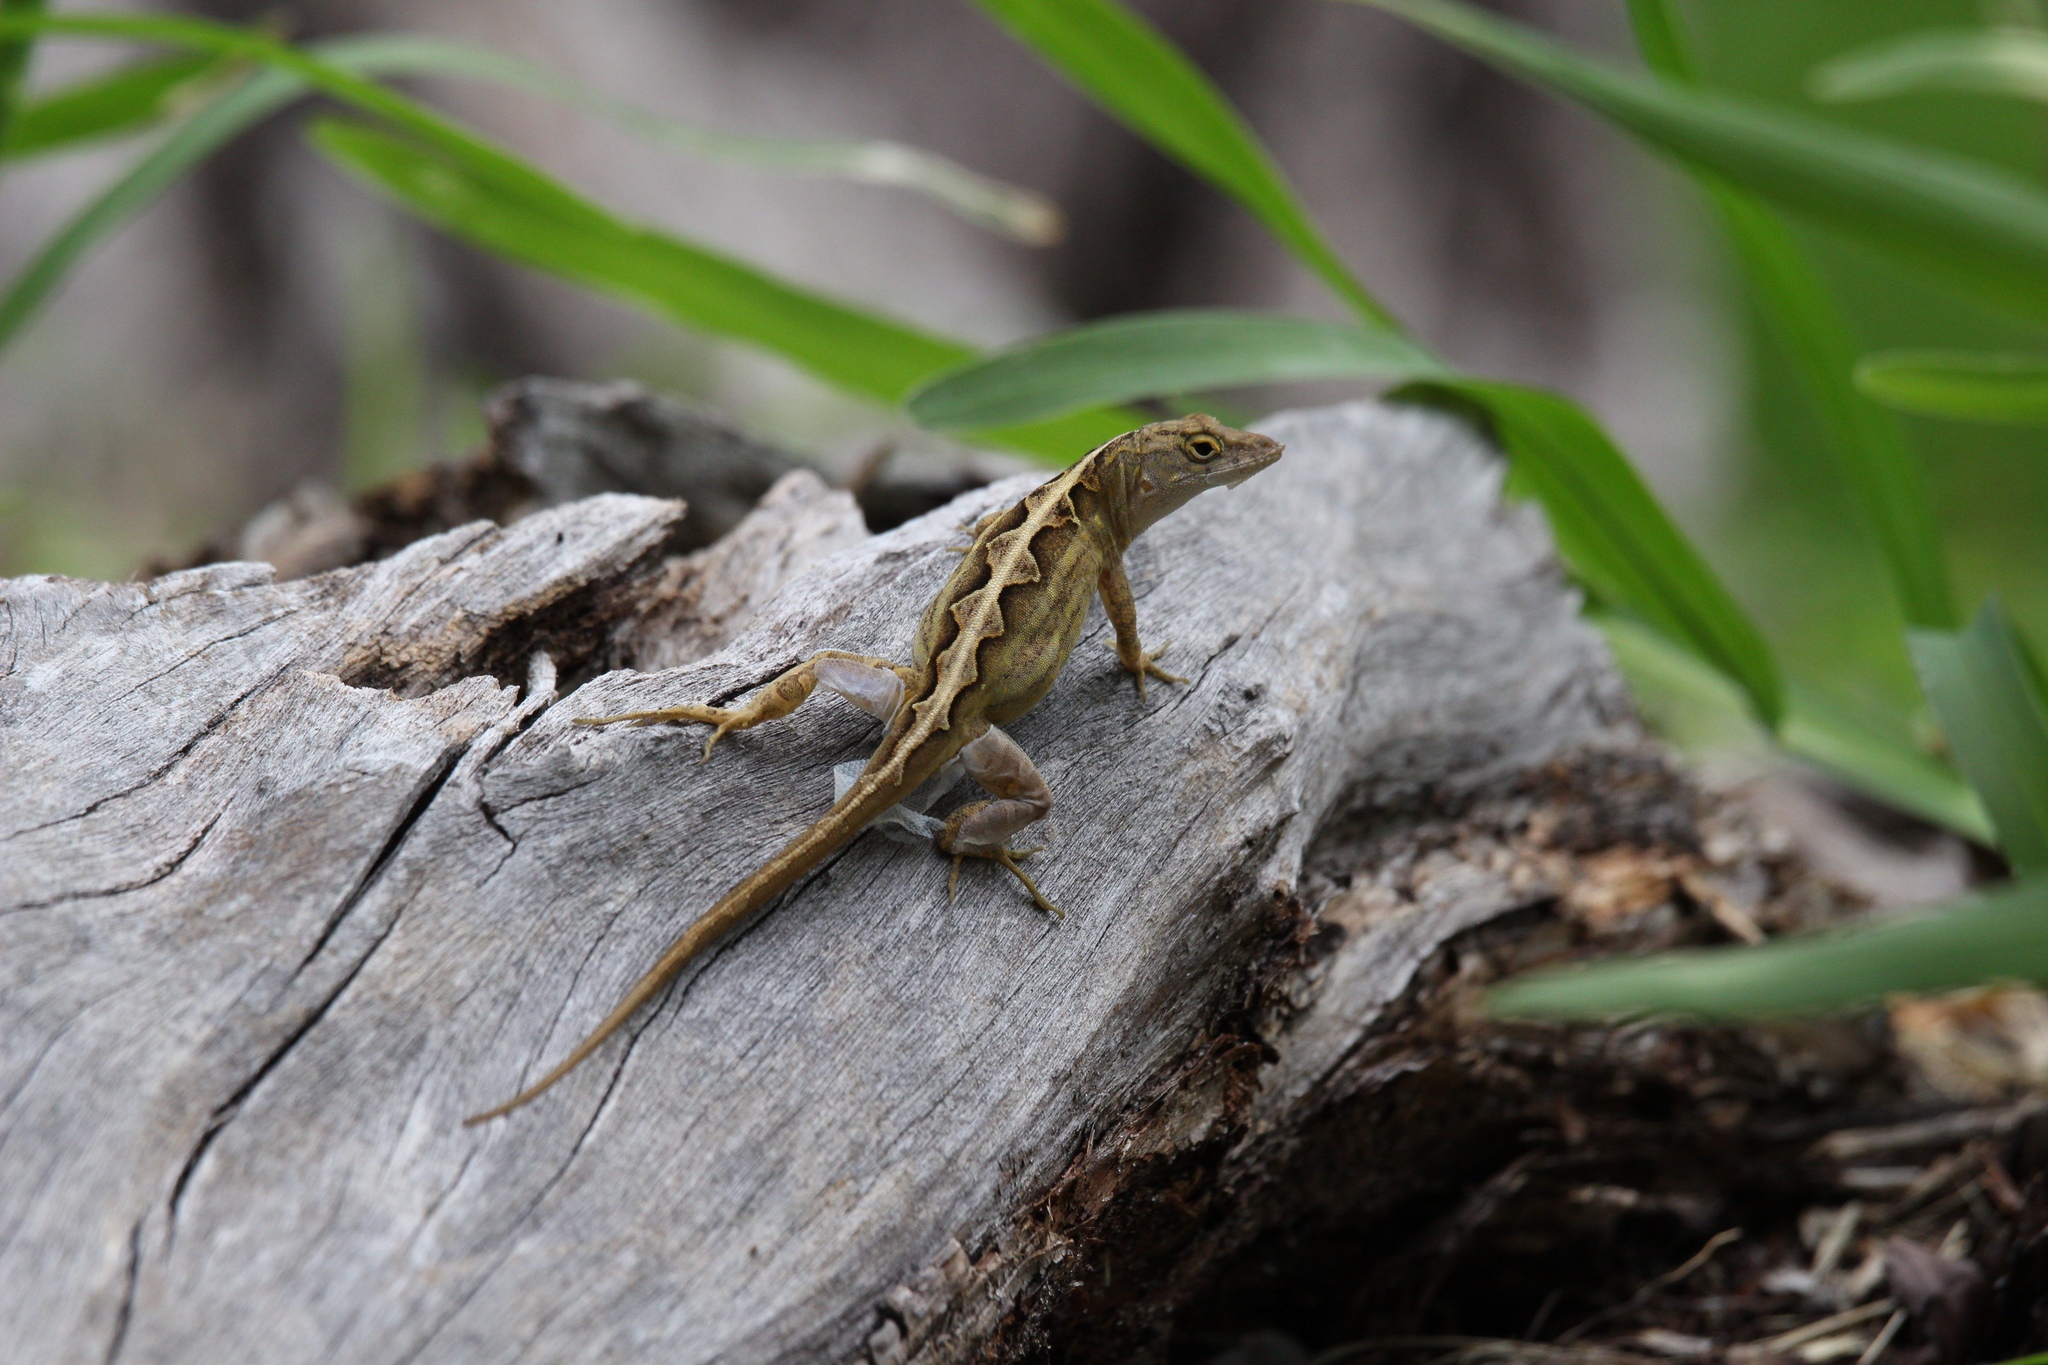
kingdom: Animalia
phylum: Chordata
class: Squamata
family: Dactyloidae
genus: Anolis
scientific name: Anolis sagrei
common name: Brown anole
